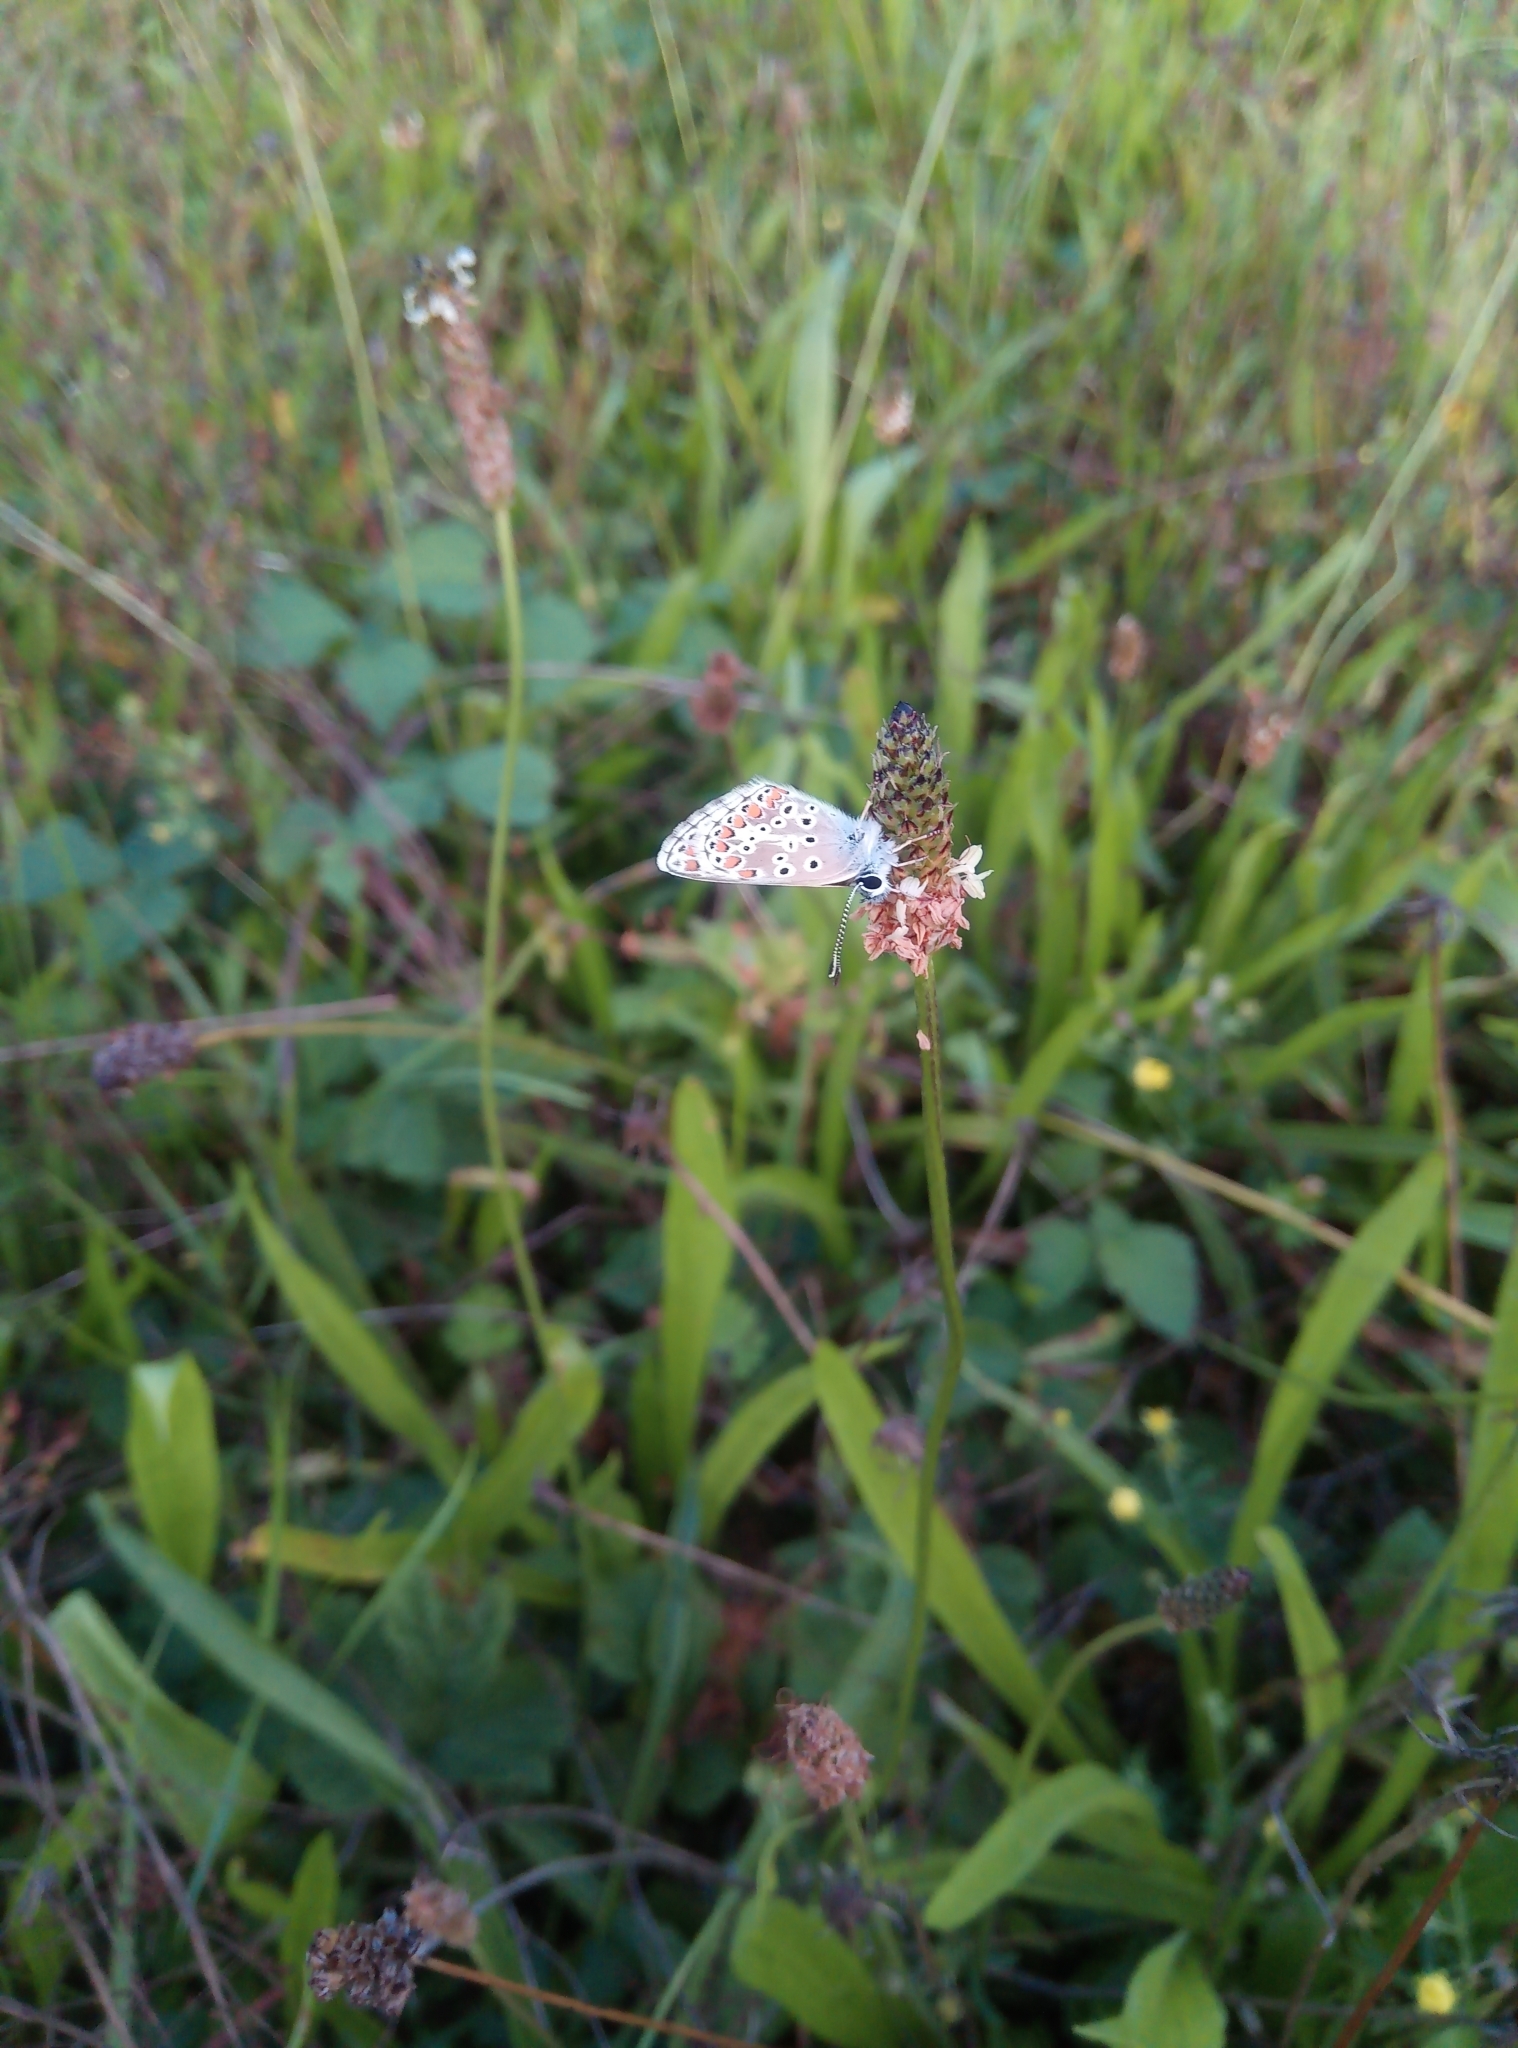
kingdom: Animalia
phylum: Arthropoda
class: Insecta
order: Lepidoptera
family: Lycaenidae
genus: Aricia
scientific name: Aricia agestis
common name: Brown argus
